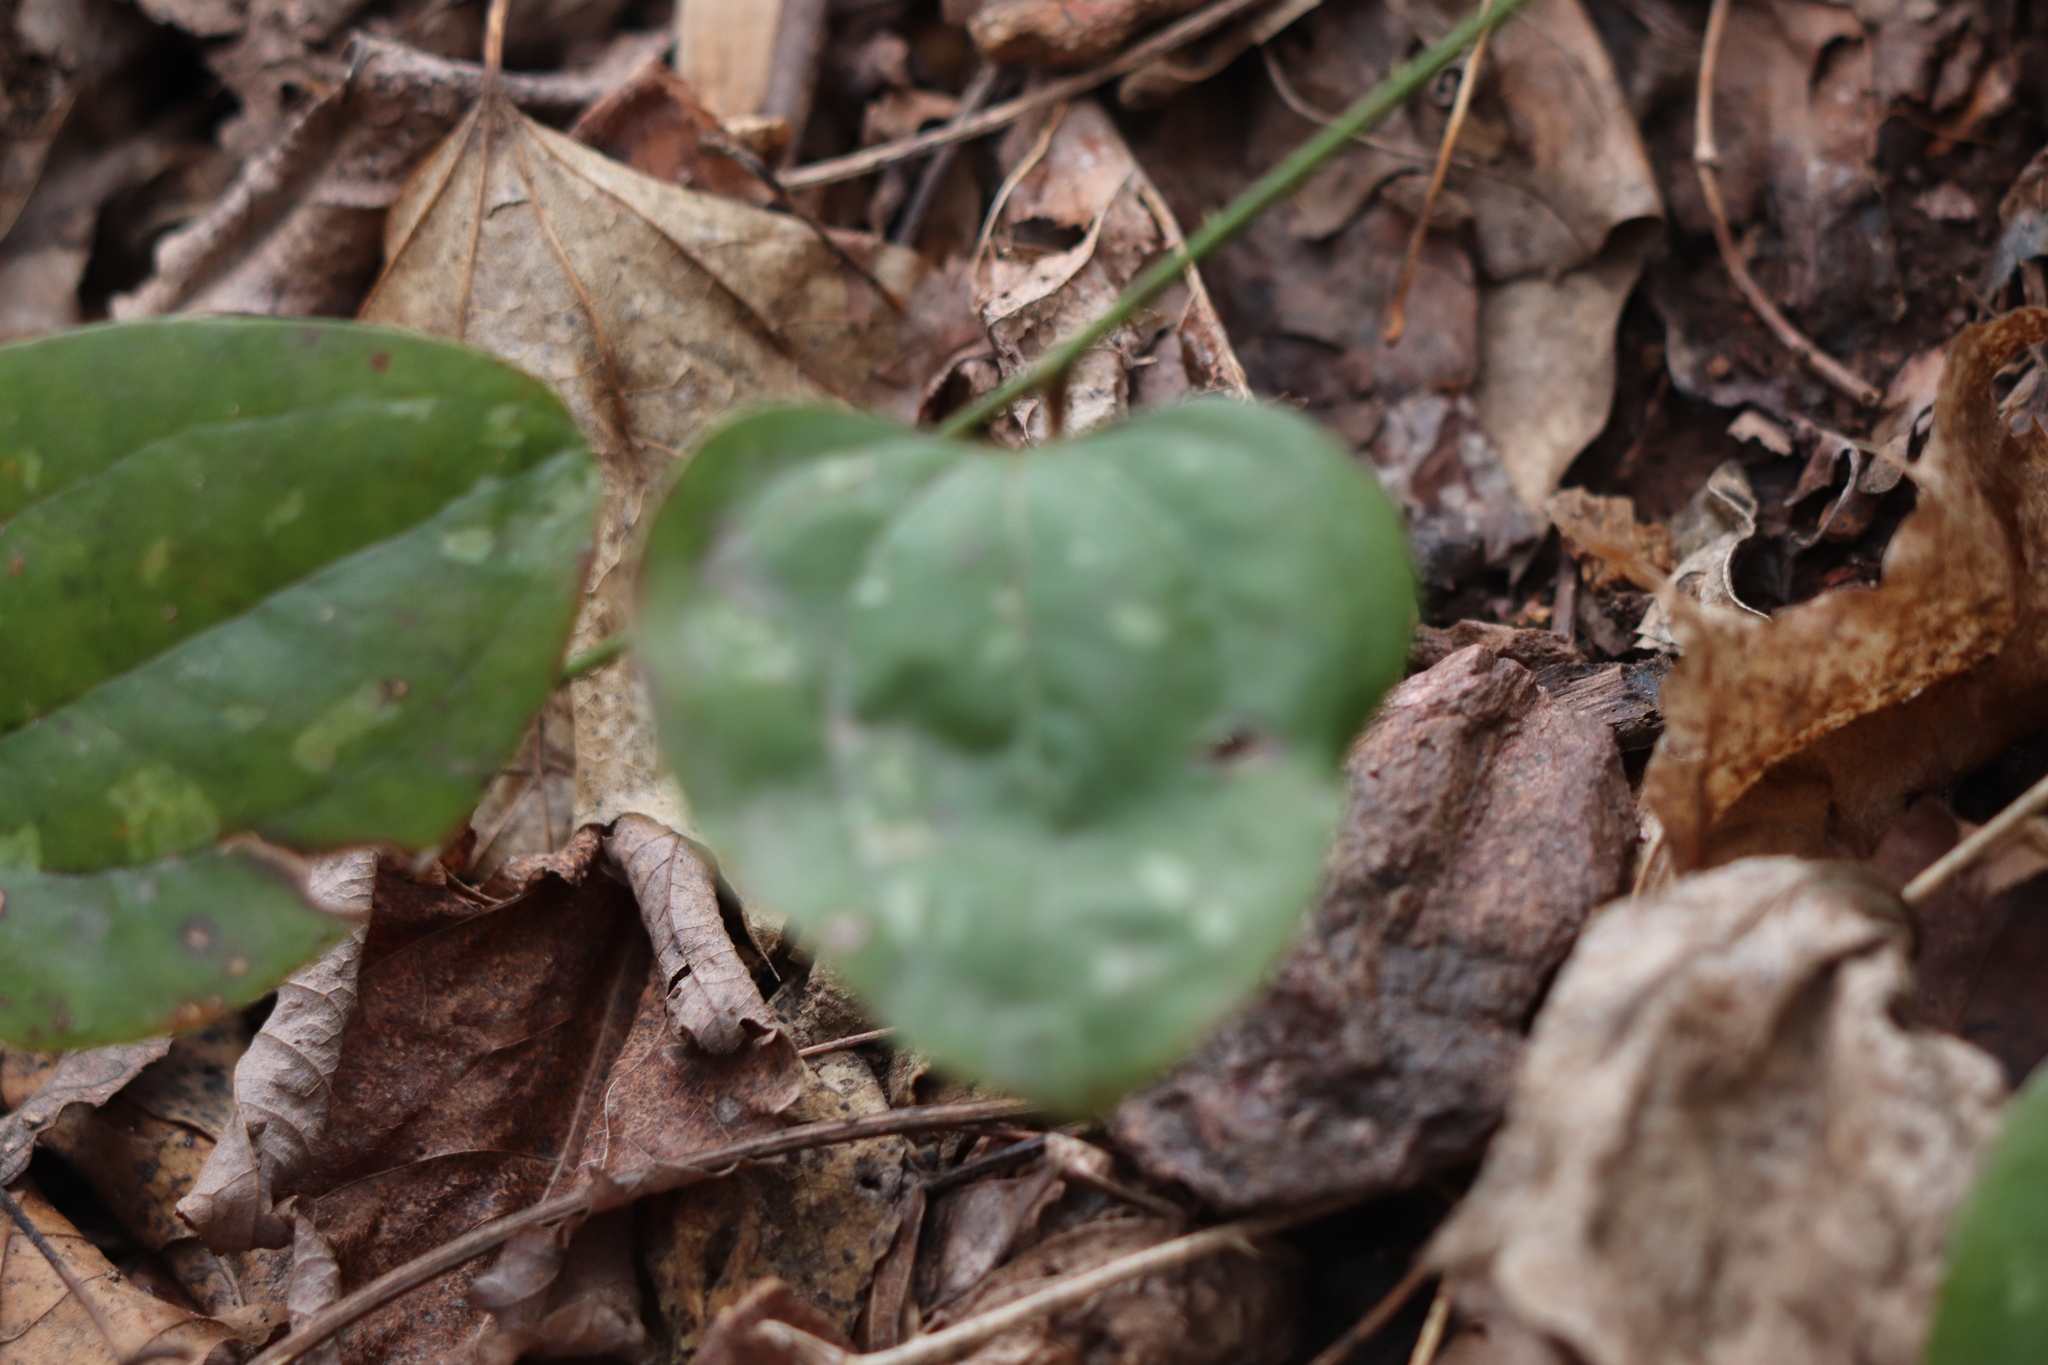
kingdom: Plantae
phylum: Tracheophyta
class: Liliopsida
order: Liliales
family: Smilacaceae
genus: Smilax
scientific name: Smilax glauca
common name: Cat greenbrier
